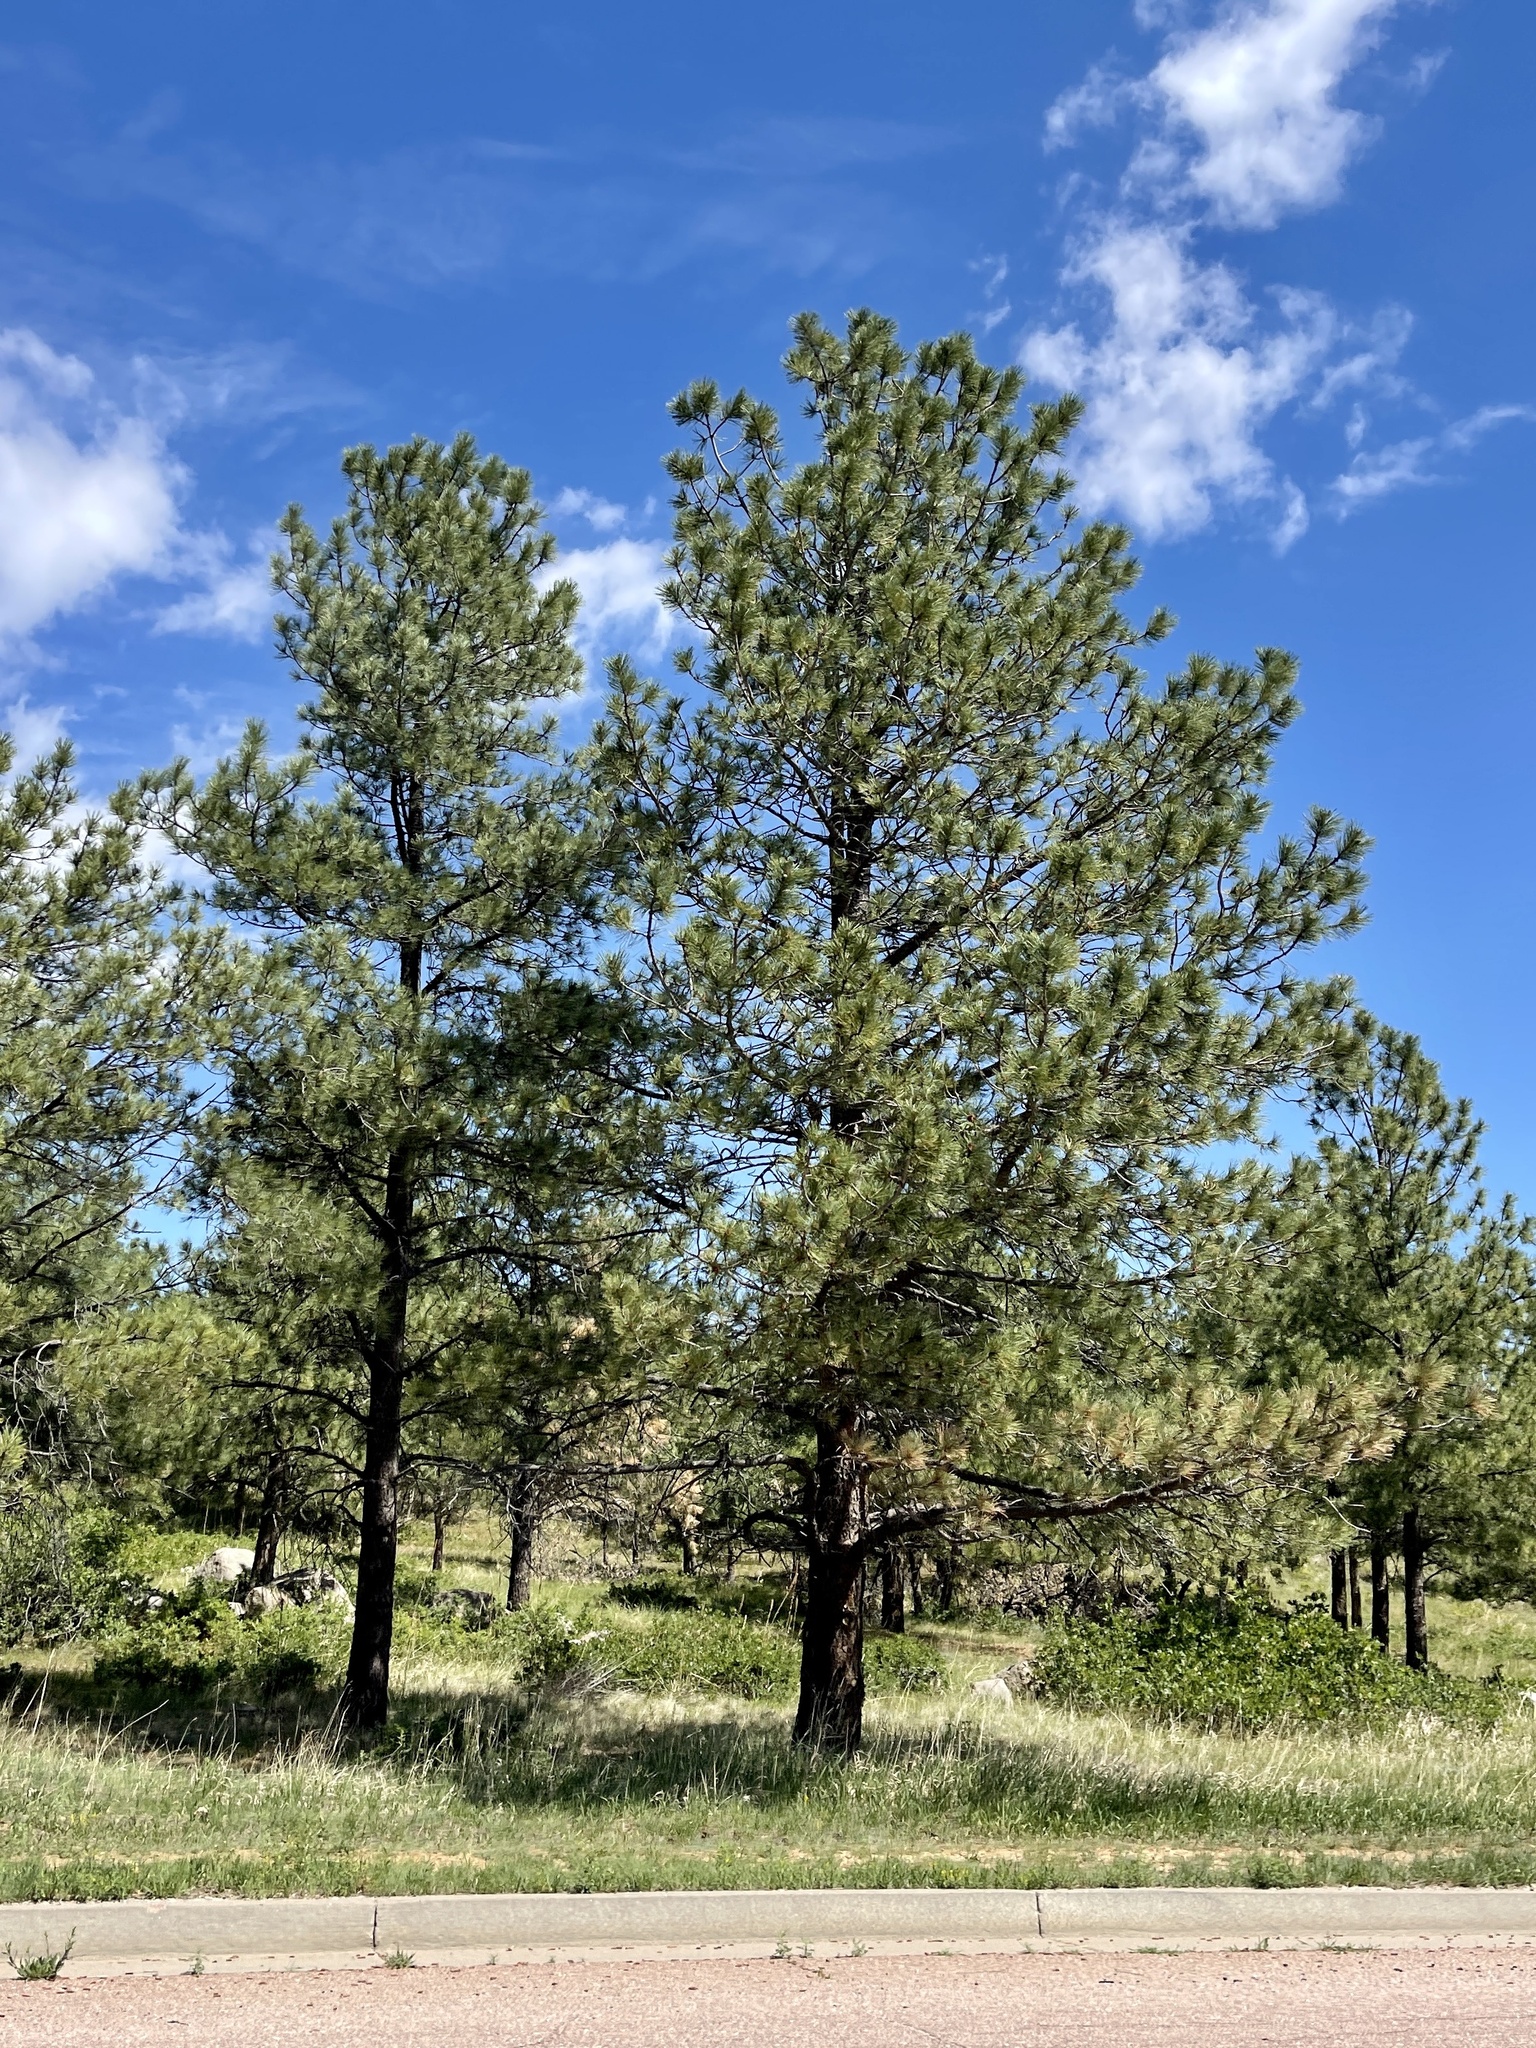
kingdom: Plantae
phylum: Tracheophyta
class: Pinopsida
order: Pinales
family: Pinaceae
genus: Pinus
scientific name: Pinus ponderosa
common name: Western yellow-pine
